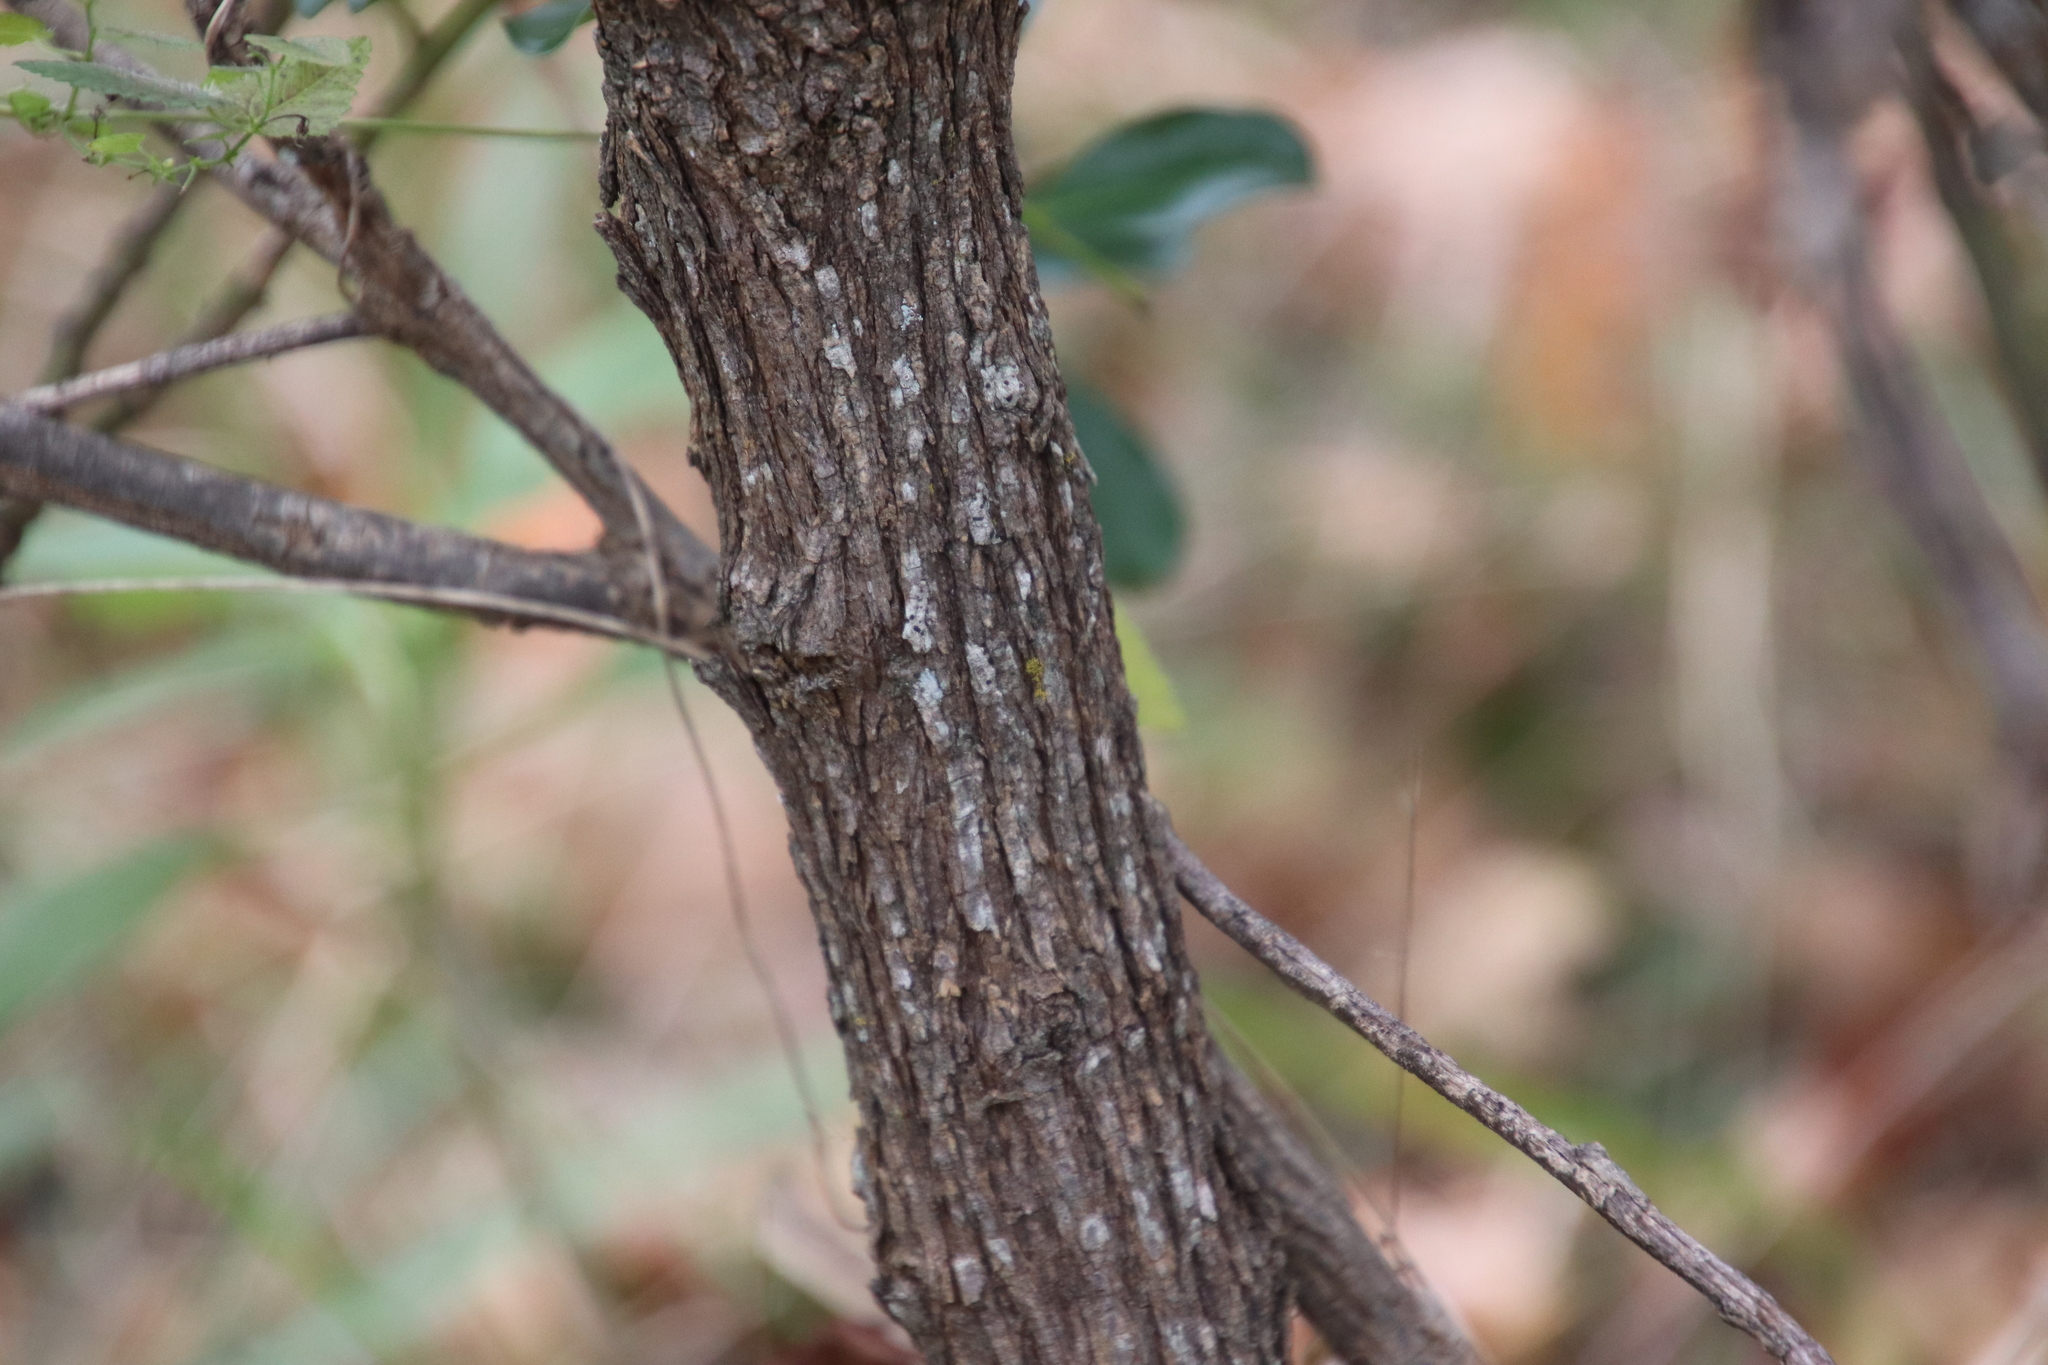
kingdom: Plantae
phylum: Tracheophyta
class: Magnoliopsida
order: Fabales
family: Fabaceae
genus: Dermatophyllum
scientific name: Dermatophyllum secundiflorum
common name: Texas-mountain-laurel
